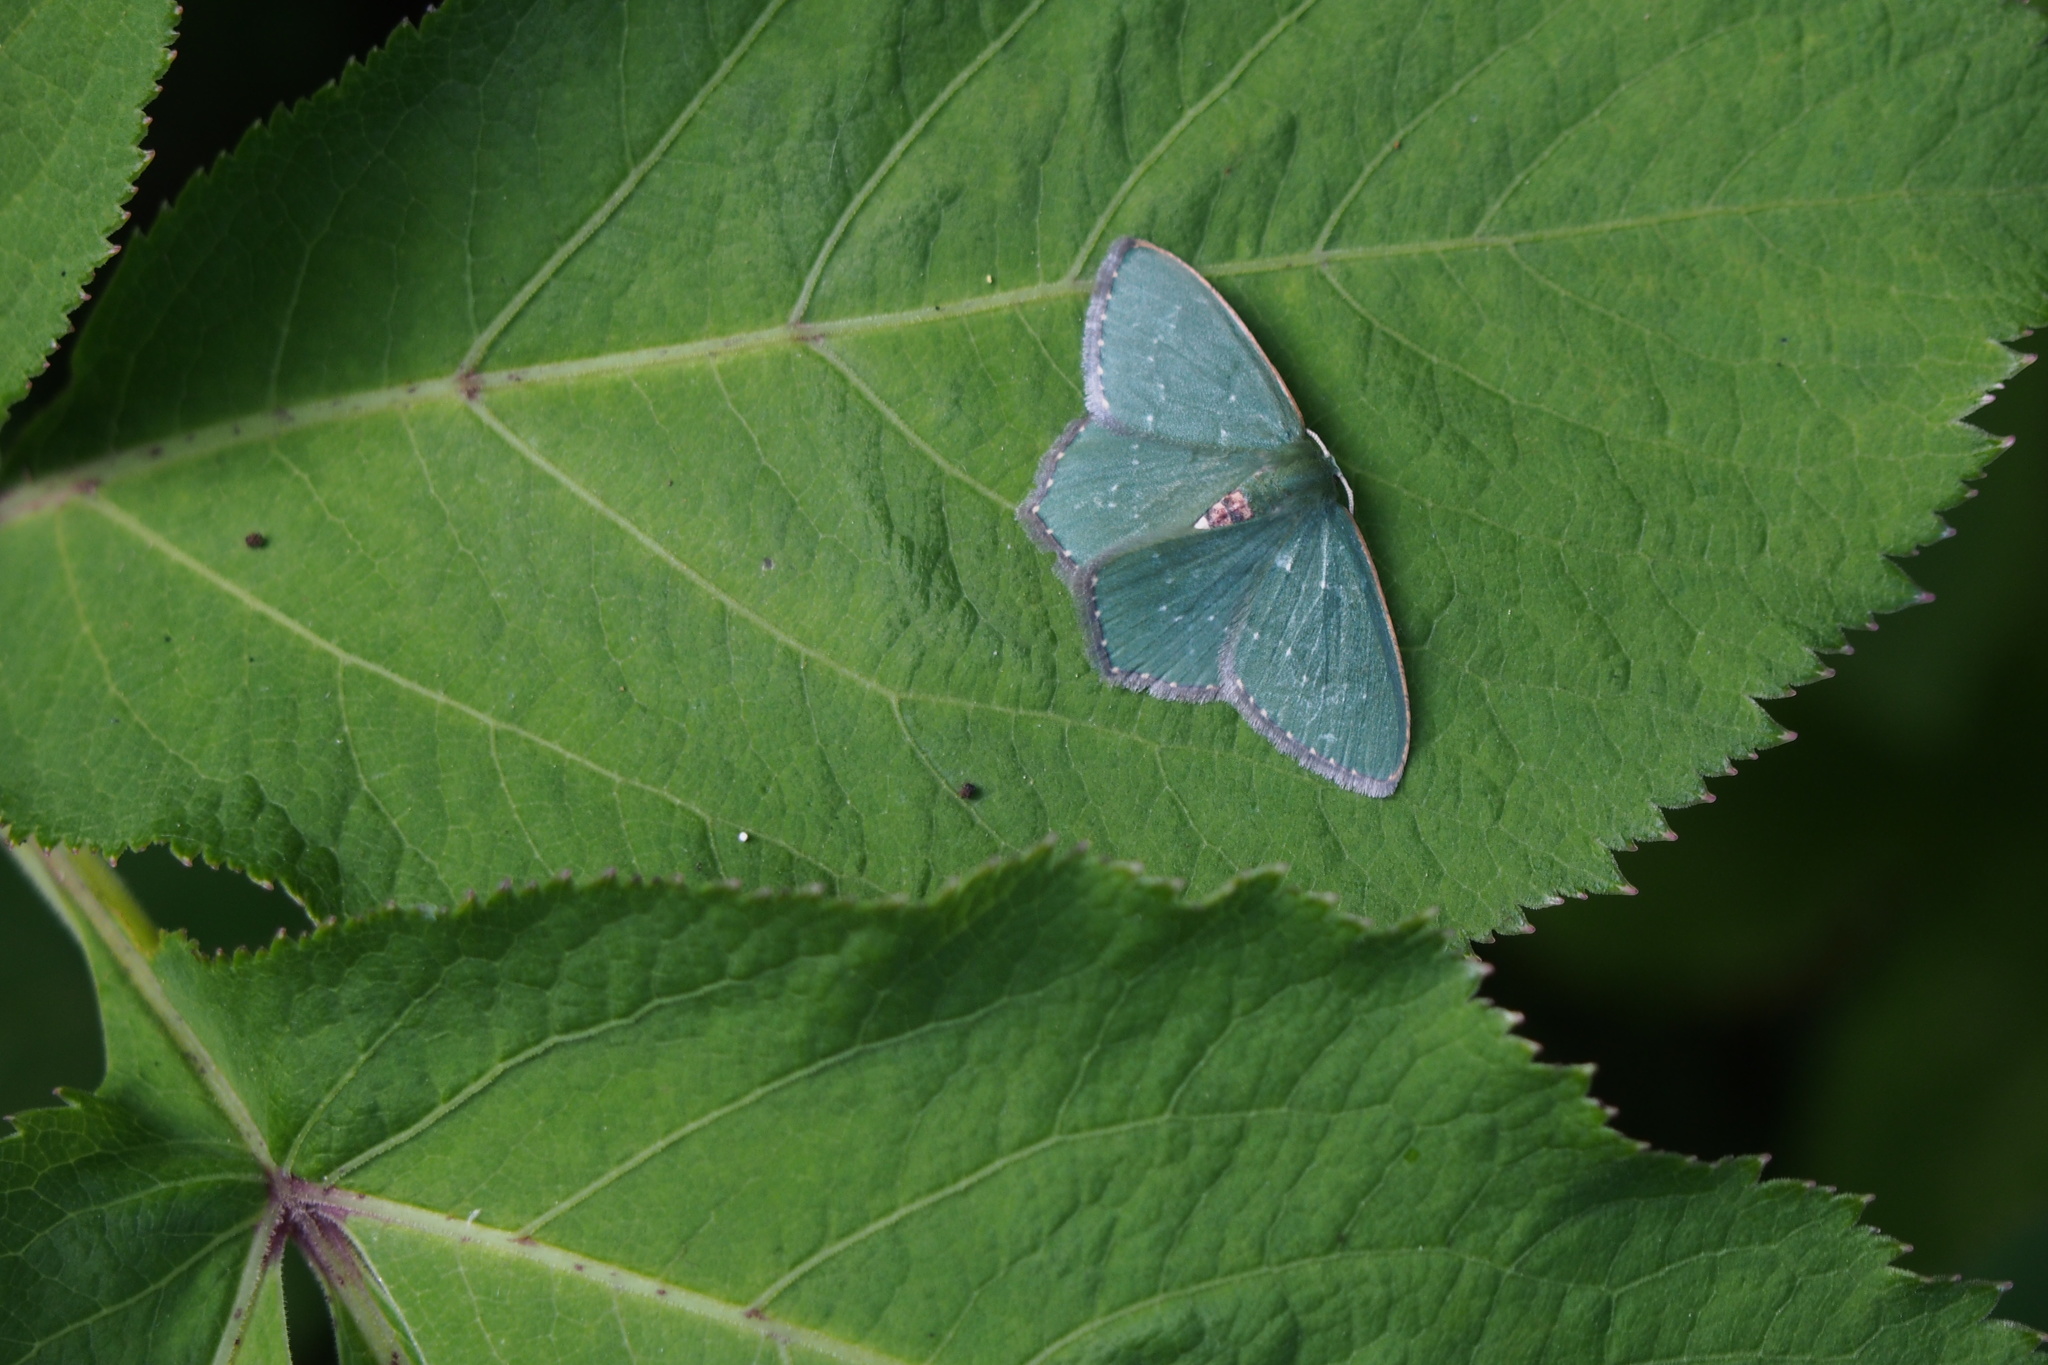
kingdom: Animalia
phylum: Arthropoda
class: Insecta
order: Lepidoptera
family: Geometridae
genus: Hemithea
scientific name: Hemithea tritonaria
